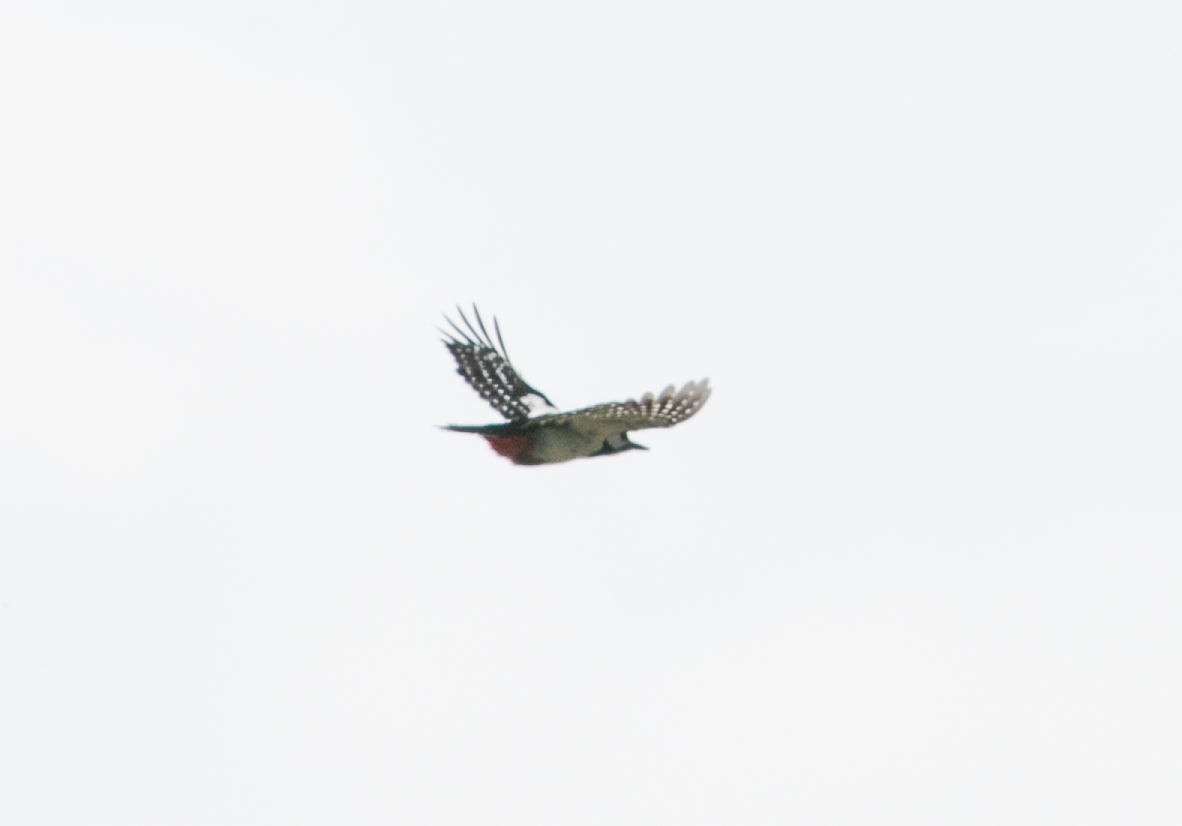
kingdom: Animalia
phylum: Chordata
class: Aves
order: Piciformes
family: Picidae
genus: Dendrocopos
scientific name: Dendrocopos major
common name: Great spotted woodpecker
